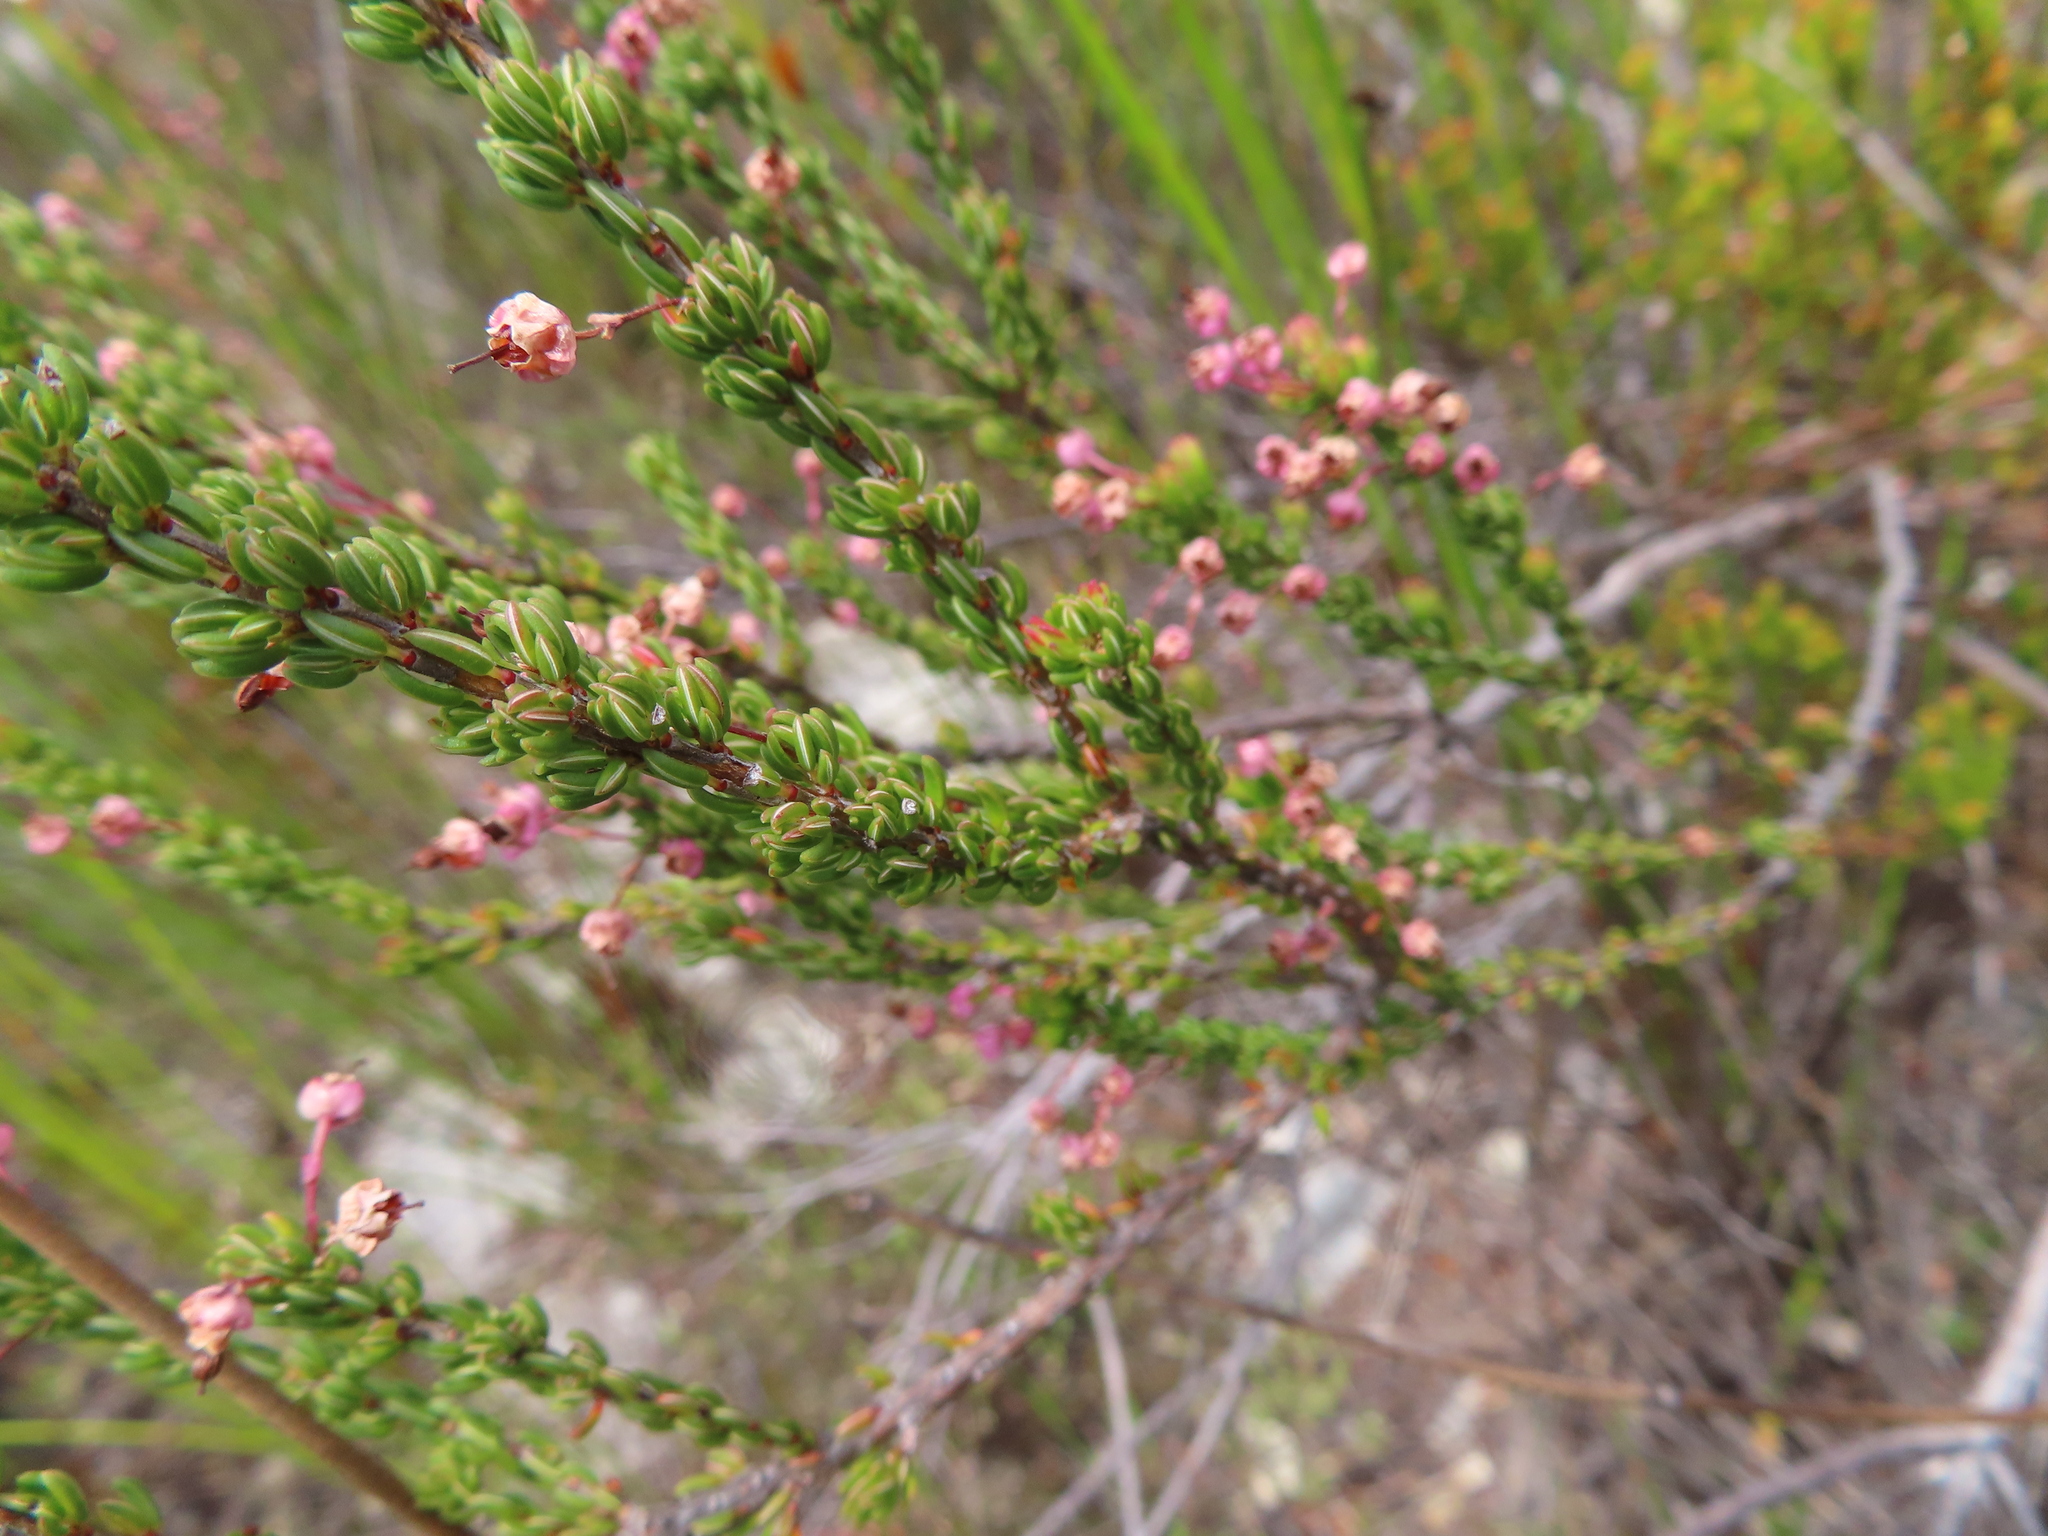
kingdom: Plantae
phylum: Tracheophyta
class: Magnoliopsida
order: Ericales
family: Ericaceae
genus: Erica
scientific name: Erica rubiginosa
